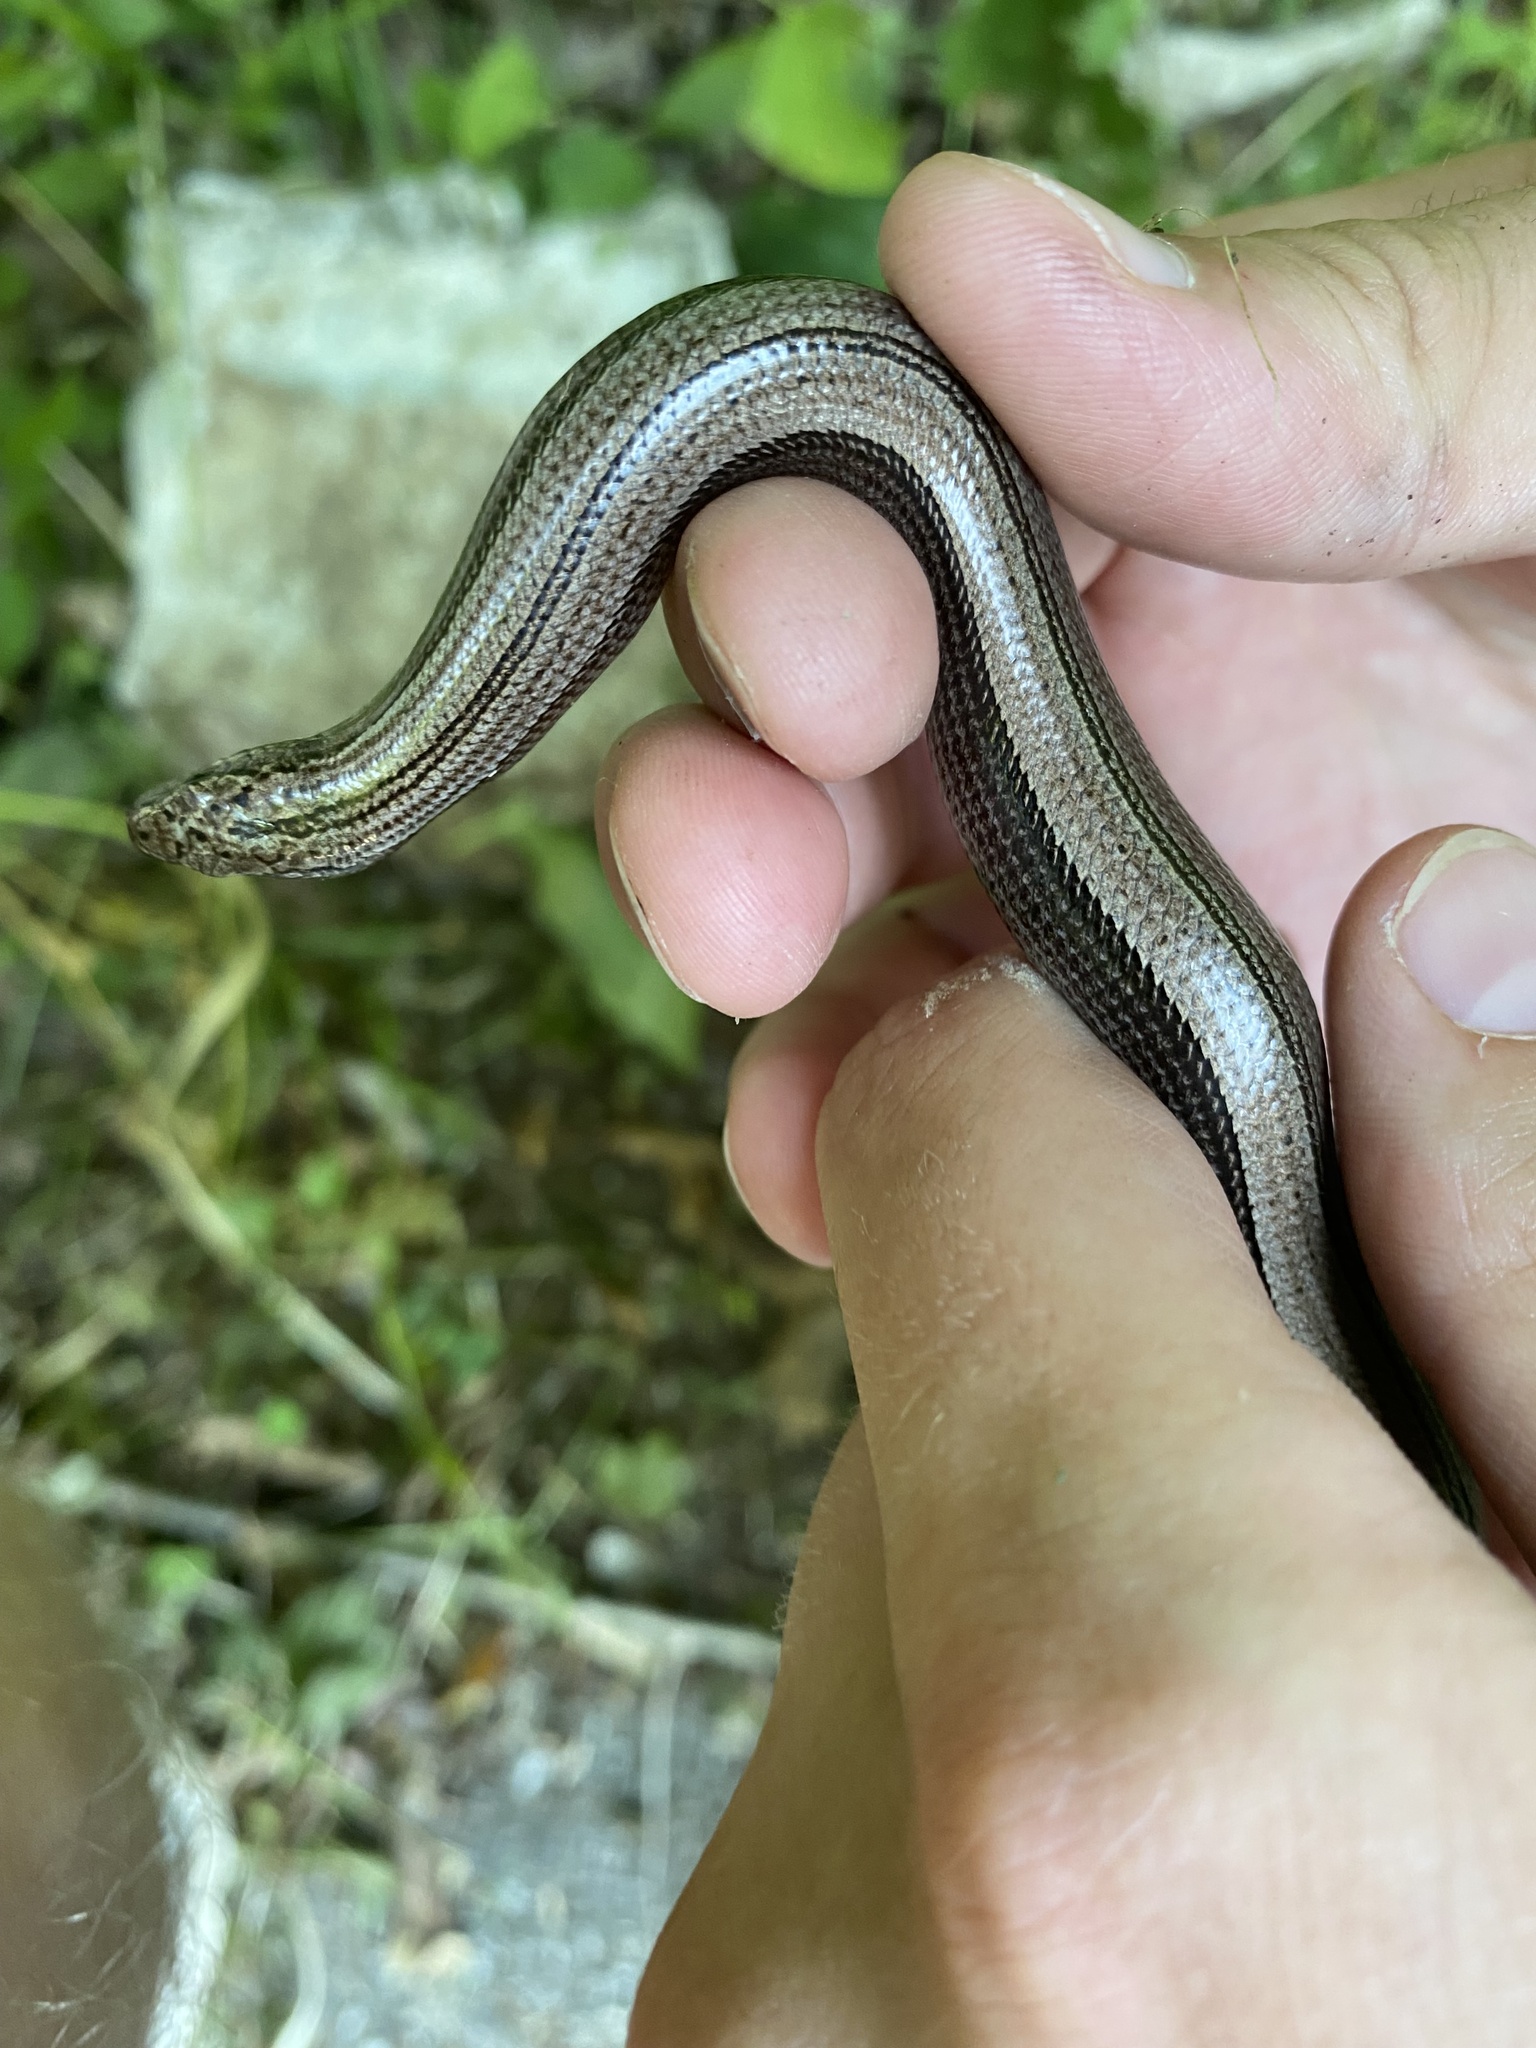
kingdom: Animalia
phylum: Chordata
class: Squamata
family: Anguidae
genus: Anguis
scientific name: Anguis colchica
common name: Slow worm
